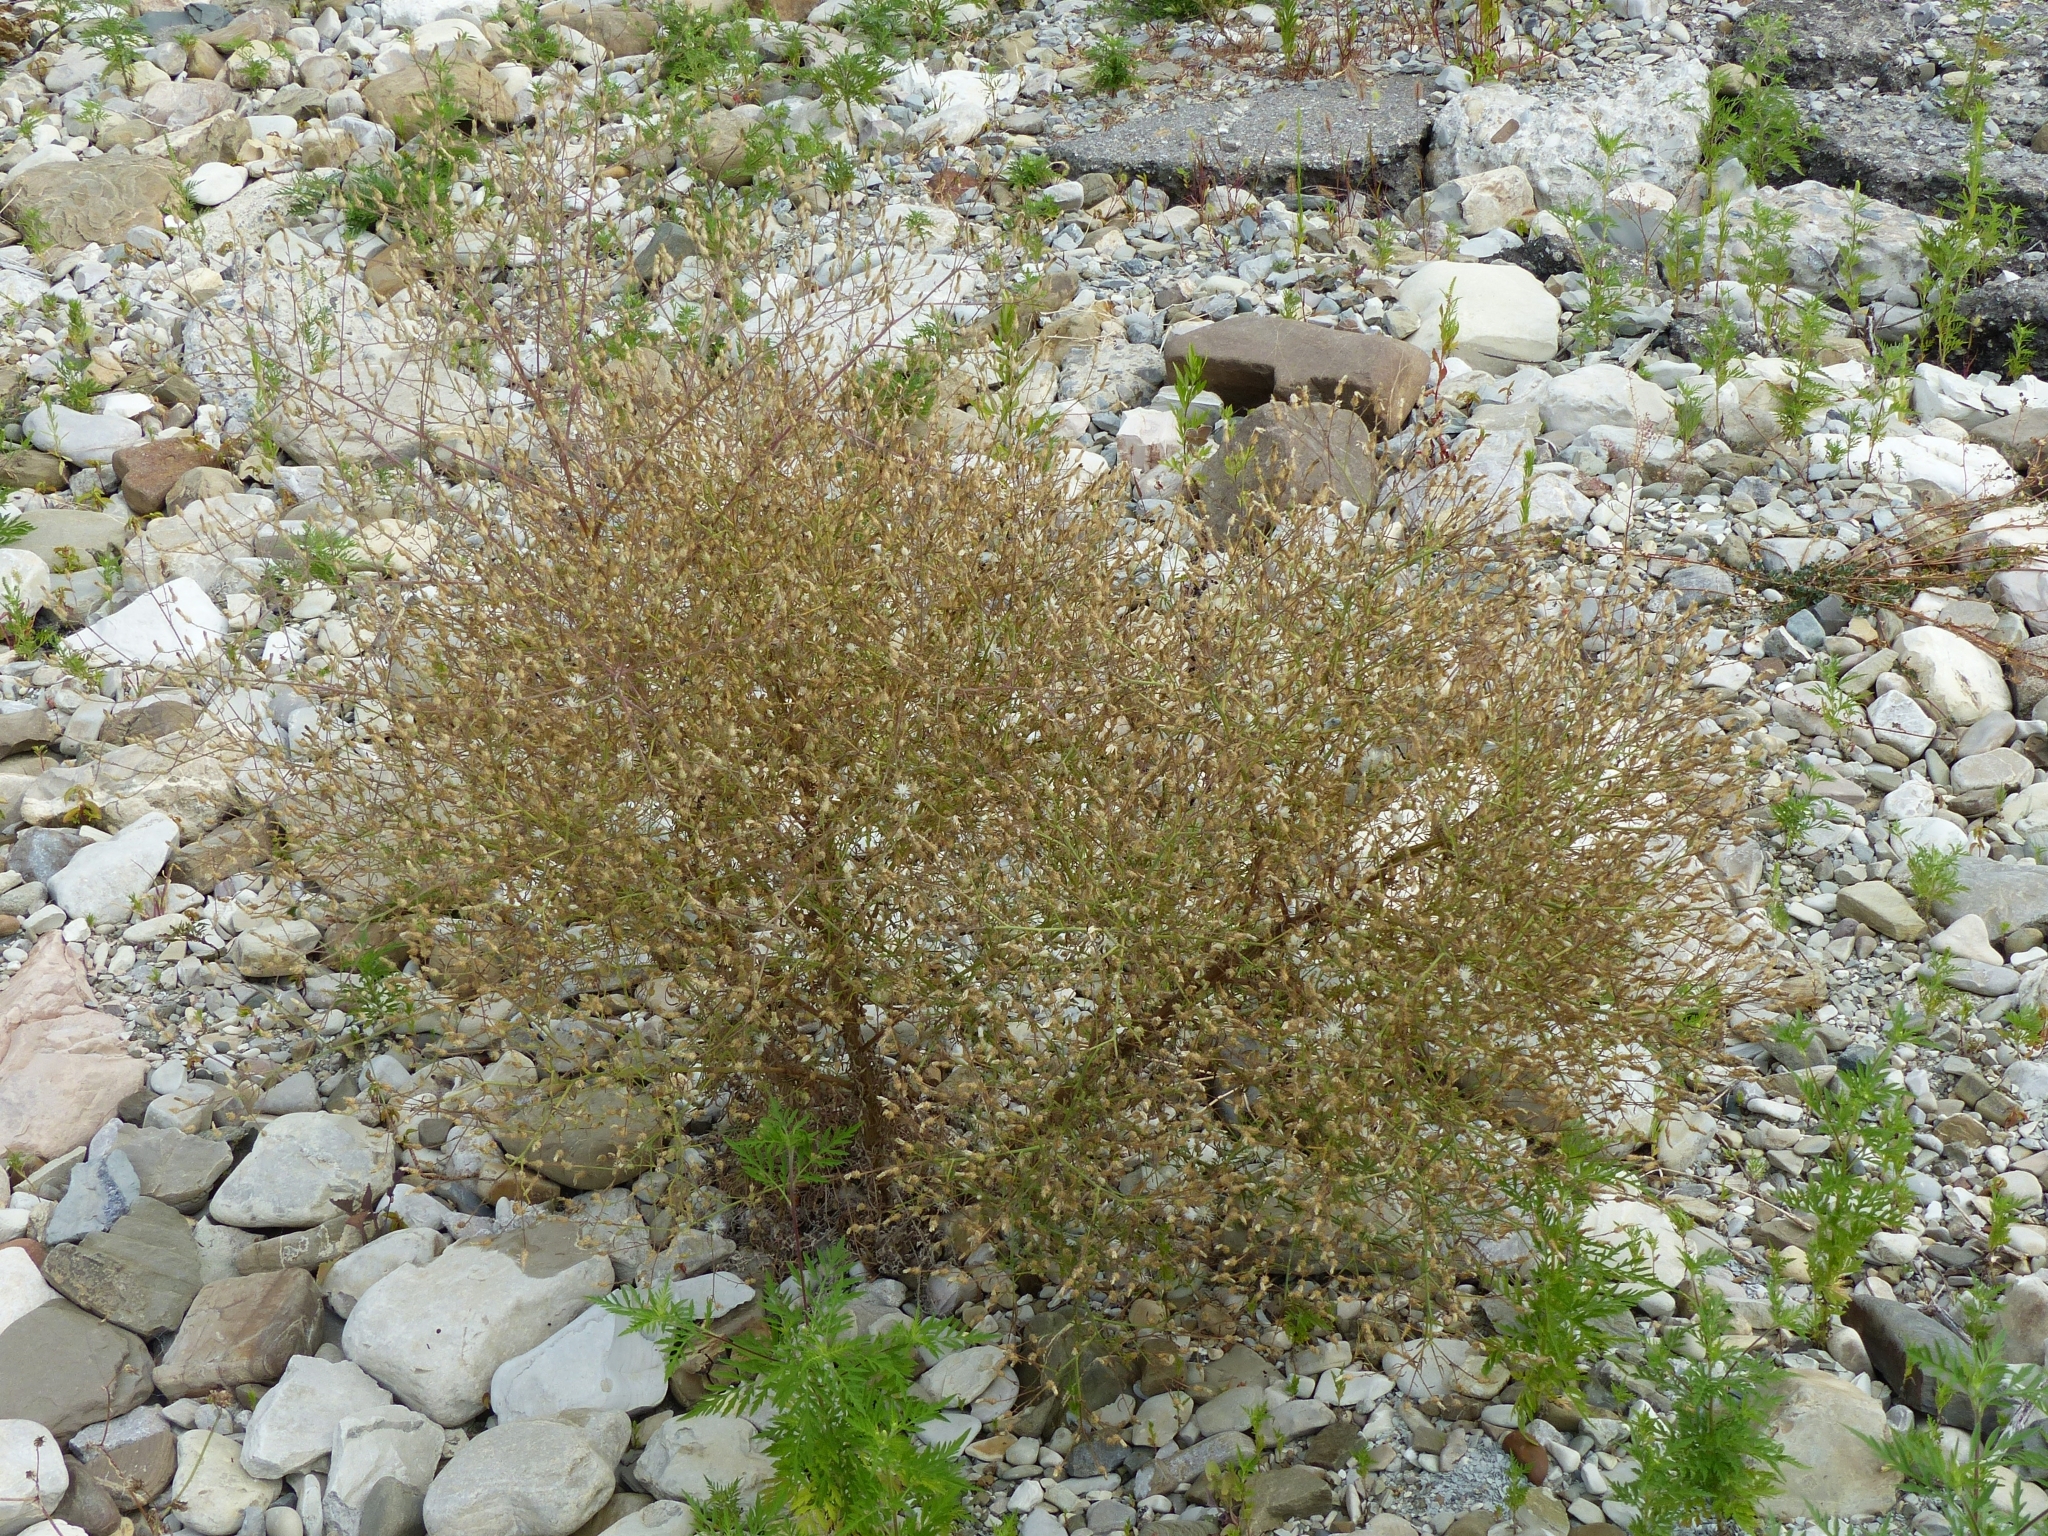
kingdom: Plantae
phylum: Tracheophyta
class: Magnoliopsida
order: Asterales
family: Asteraceae
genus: Centaurea
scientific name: Centaurea diffusa
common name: Diffuse knapweed
